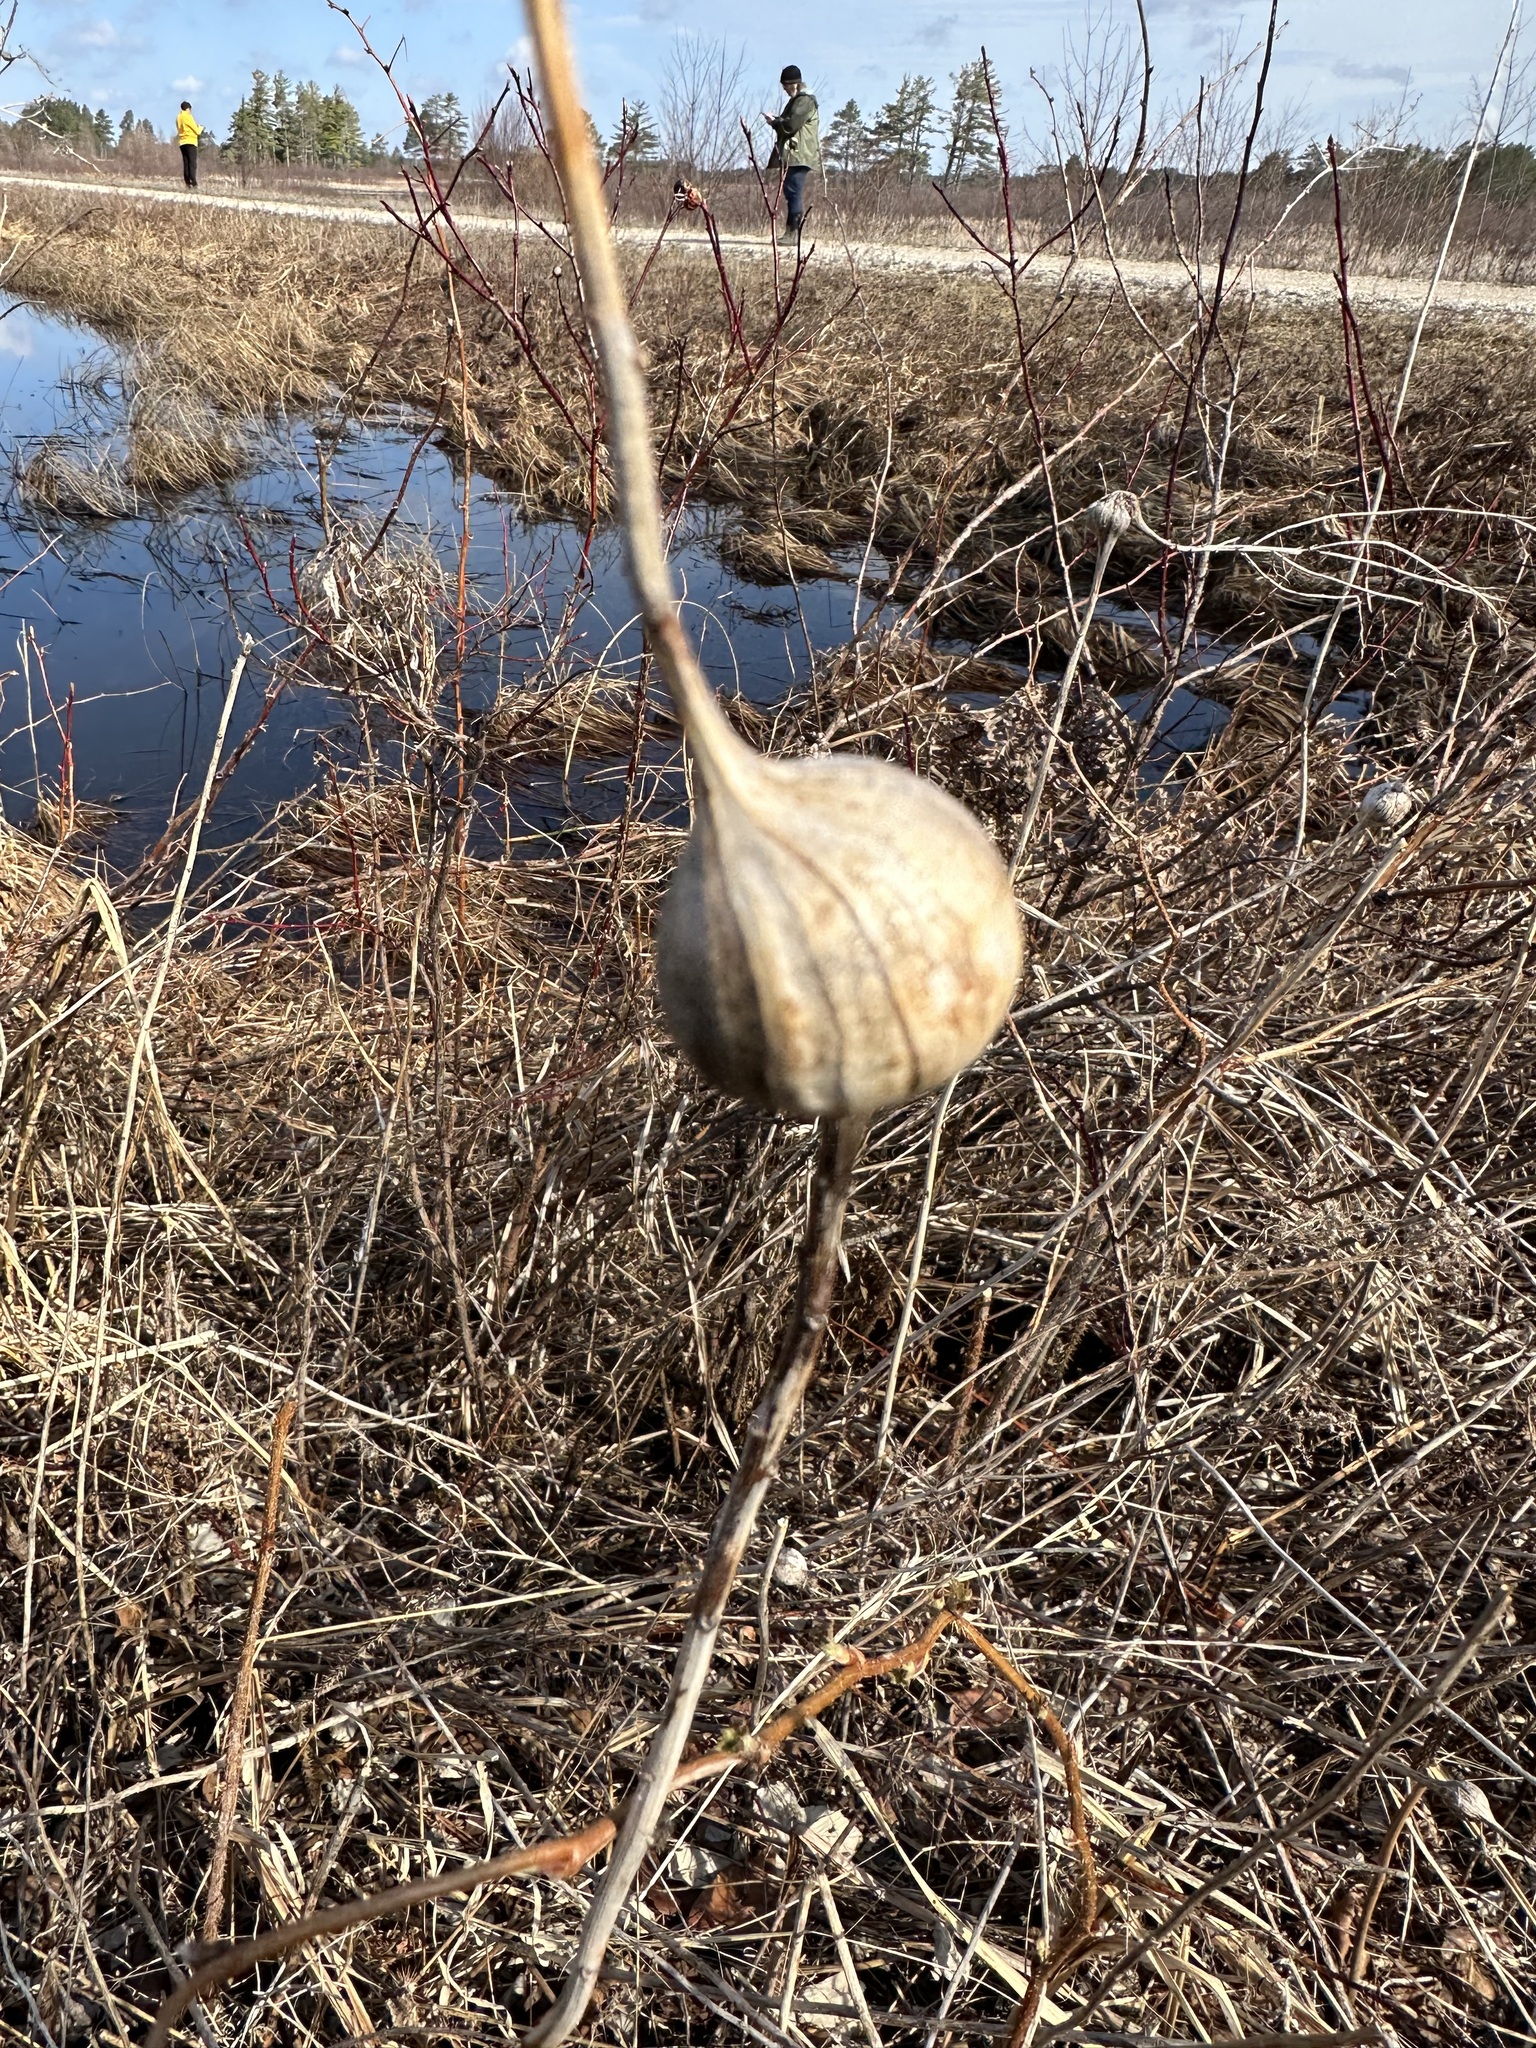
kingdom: Animalia
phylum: Arthropoda
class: Insecta
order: Diptera
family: Tephritidae
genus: Eurosta
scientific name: Eurosta solidaginis
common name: Goldenrod gall fly
